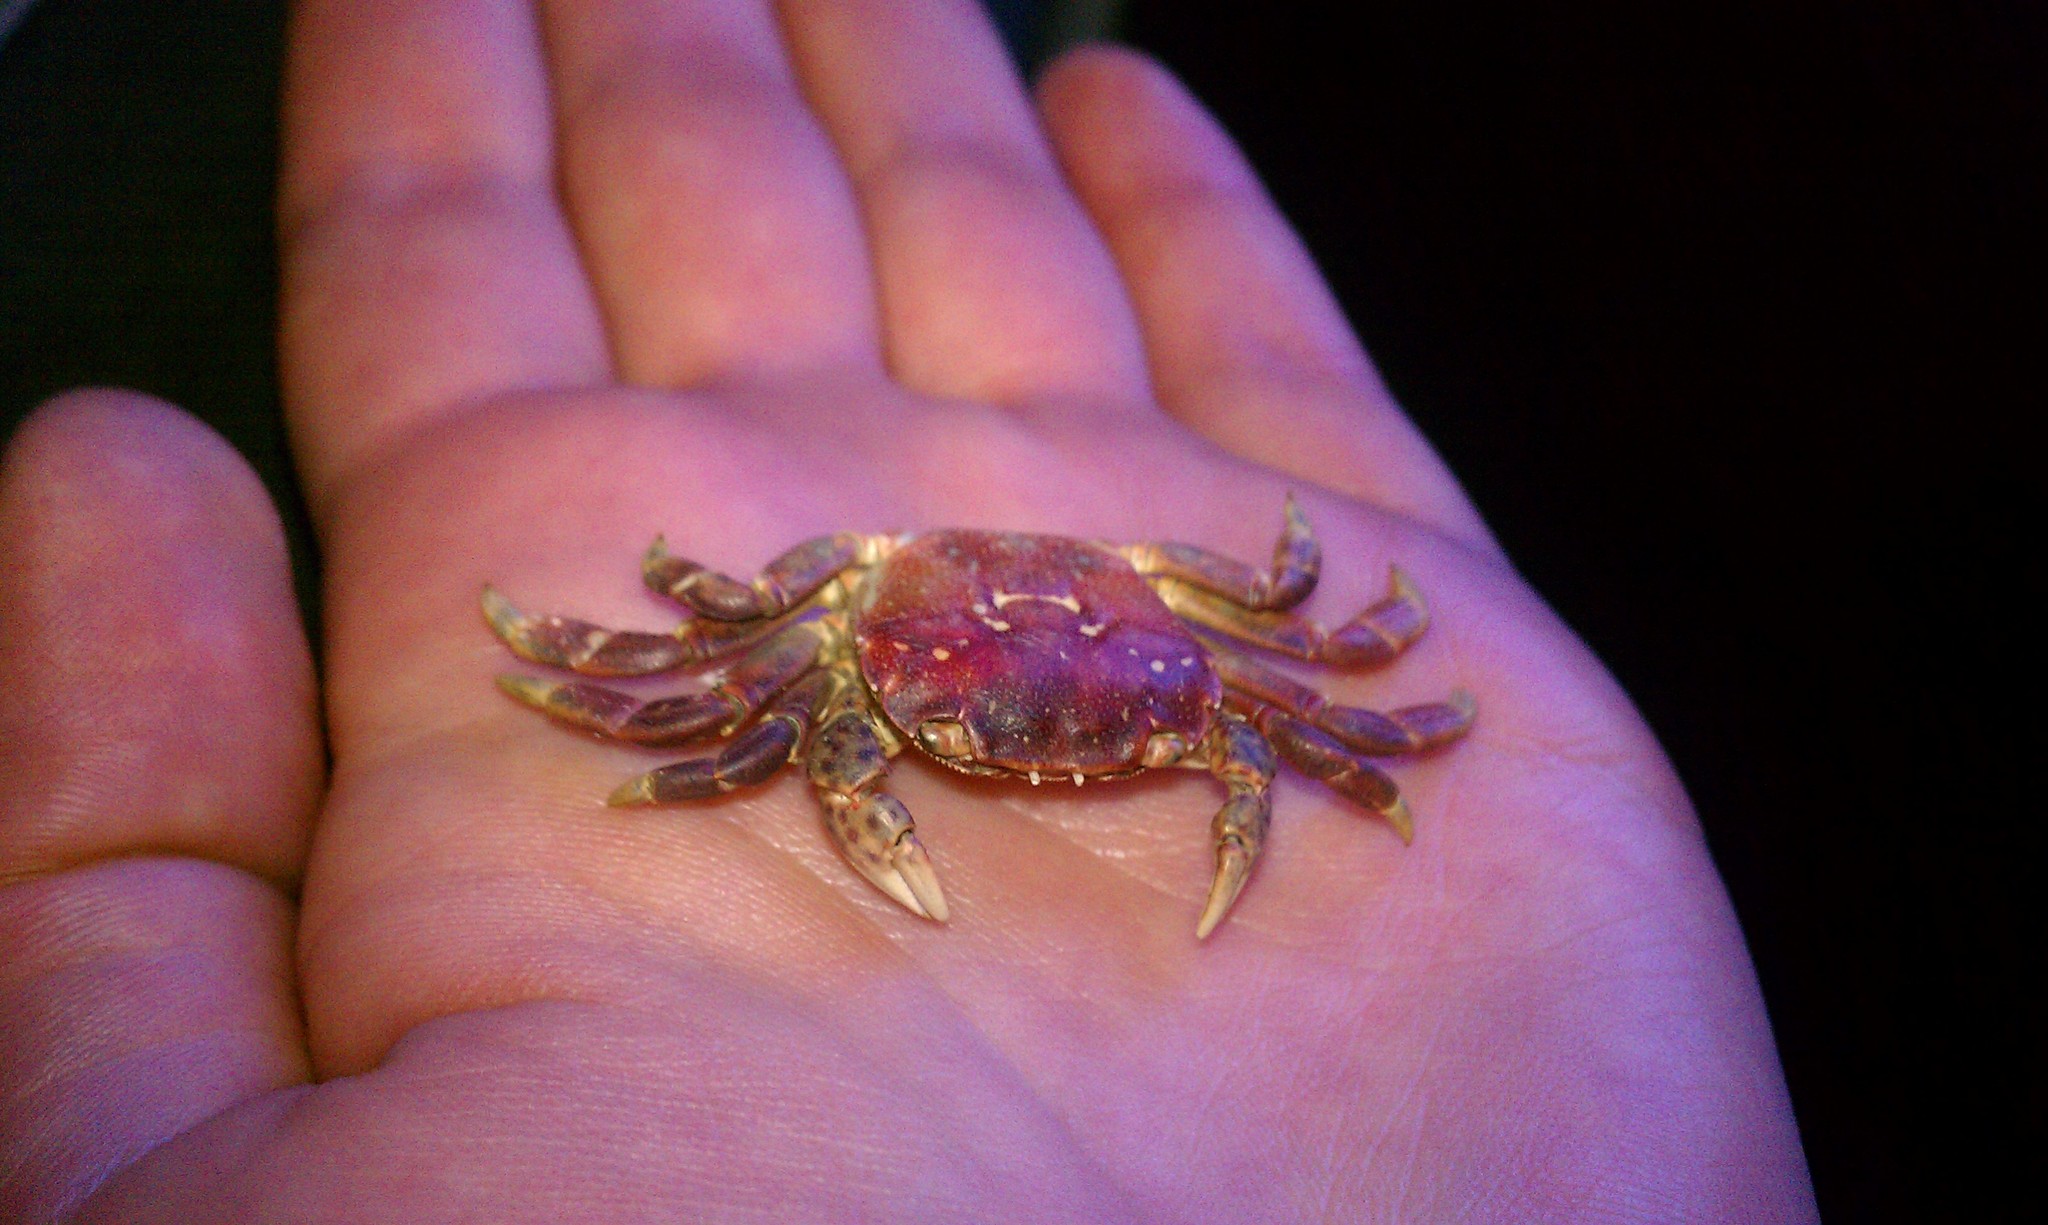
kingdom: Animalia
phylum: Arthropoda
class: Malacostraca
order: Decapoda
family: Varunidae
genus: Hemigrapsus
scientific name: Hemigrapsus nudus
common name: Purple shore crab
